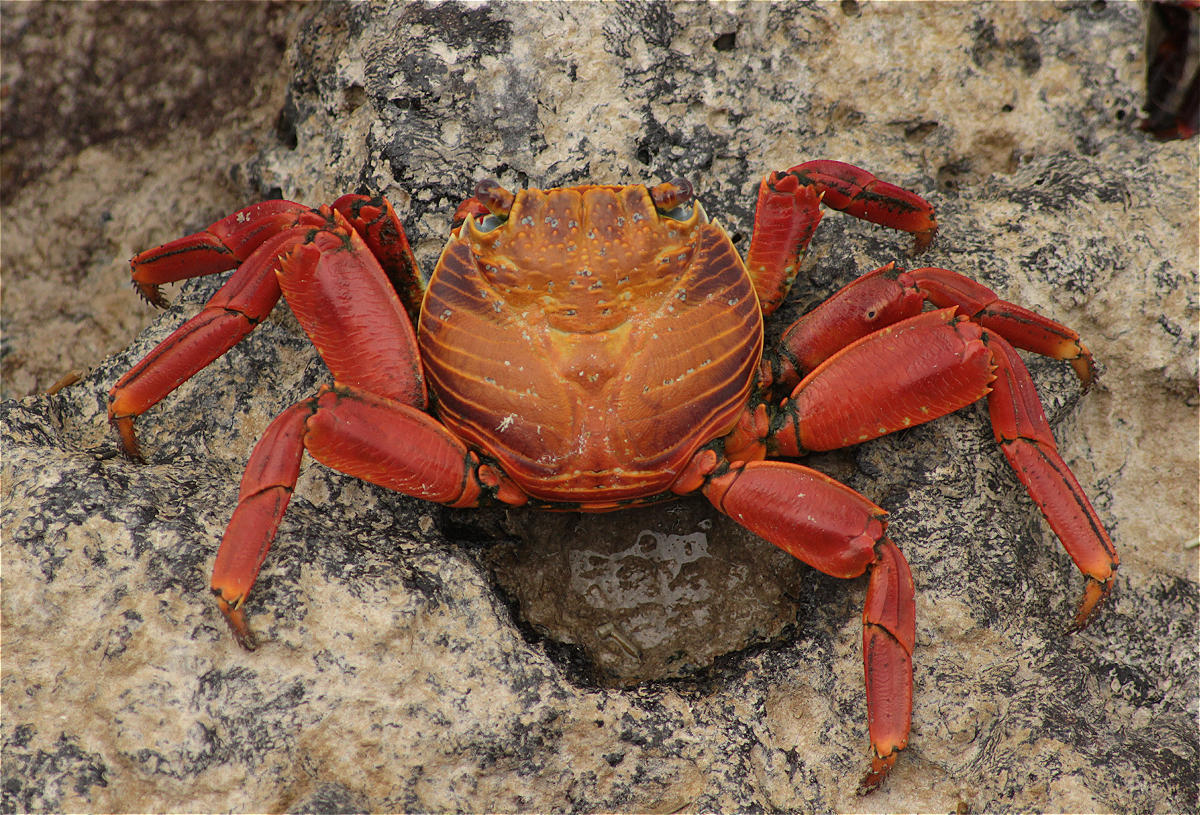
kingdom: Animalia
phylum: Arthropoda
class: Malacostraca
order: Decapoda
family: Grapsidae
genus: Grapsus
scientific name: Grapsus grapsus
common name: Sally lightfoot
